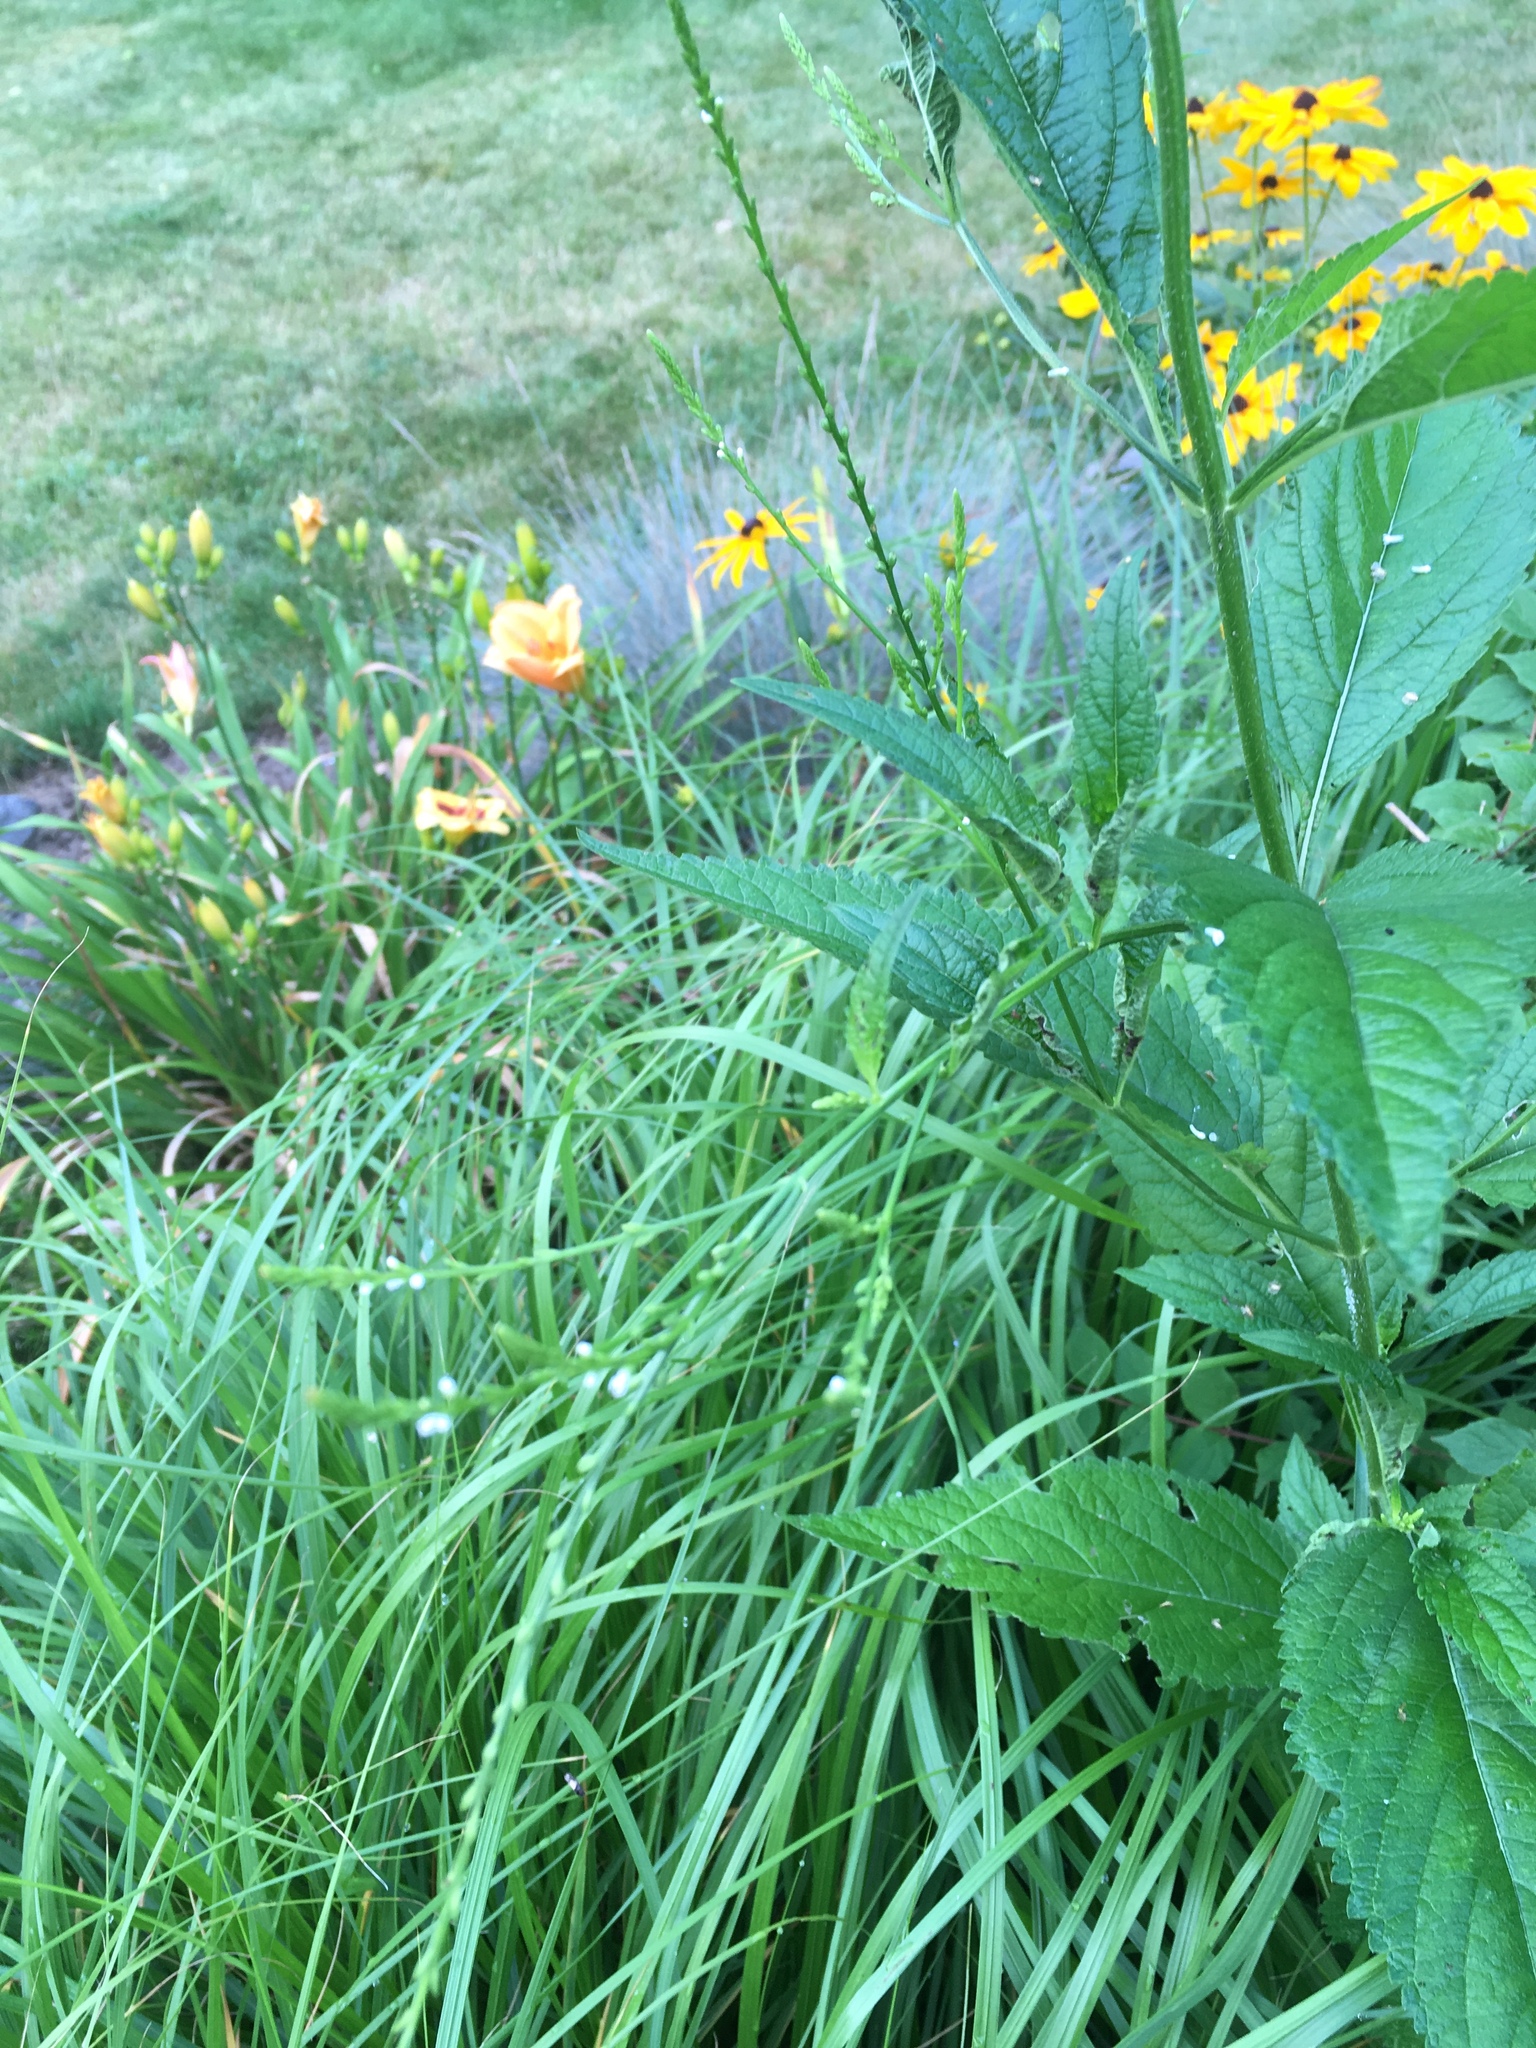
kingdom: Plantae
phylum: Tracheophyta
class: Magnoliopsida
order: Lamiales
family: Verbenaceae
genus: Verbena
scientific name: Verbena urticifolia
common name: Nettle-leaved vervain
